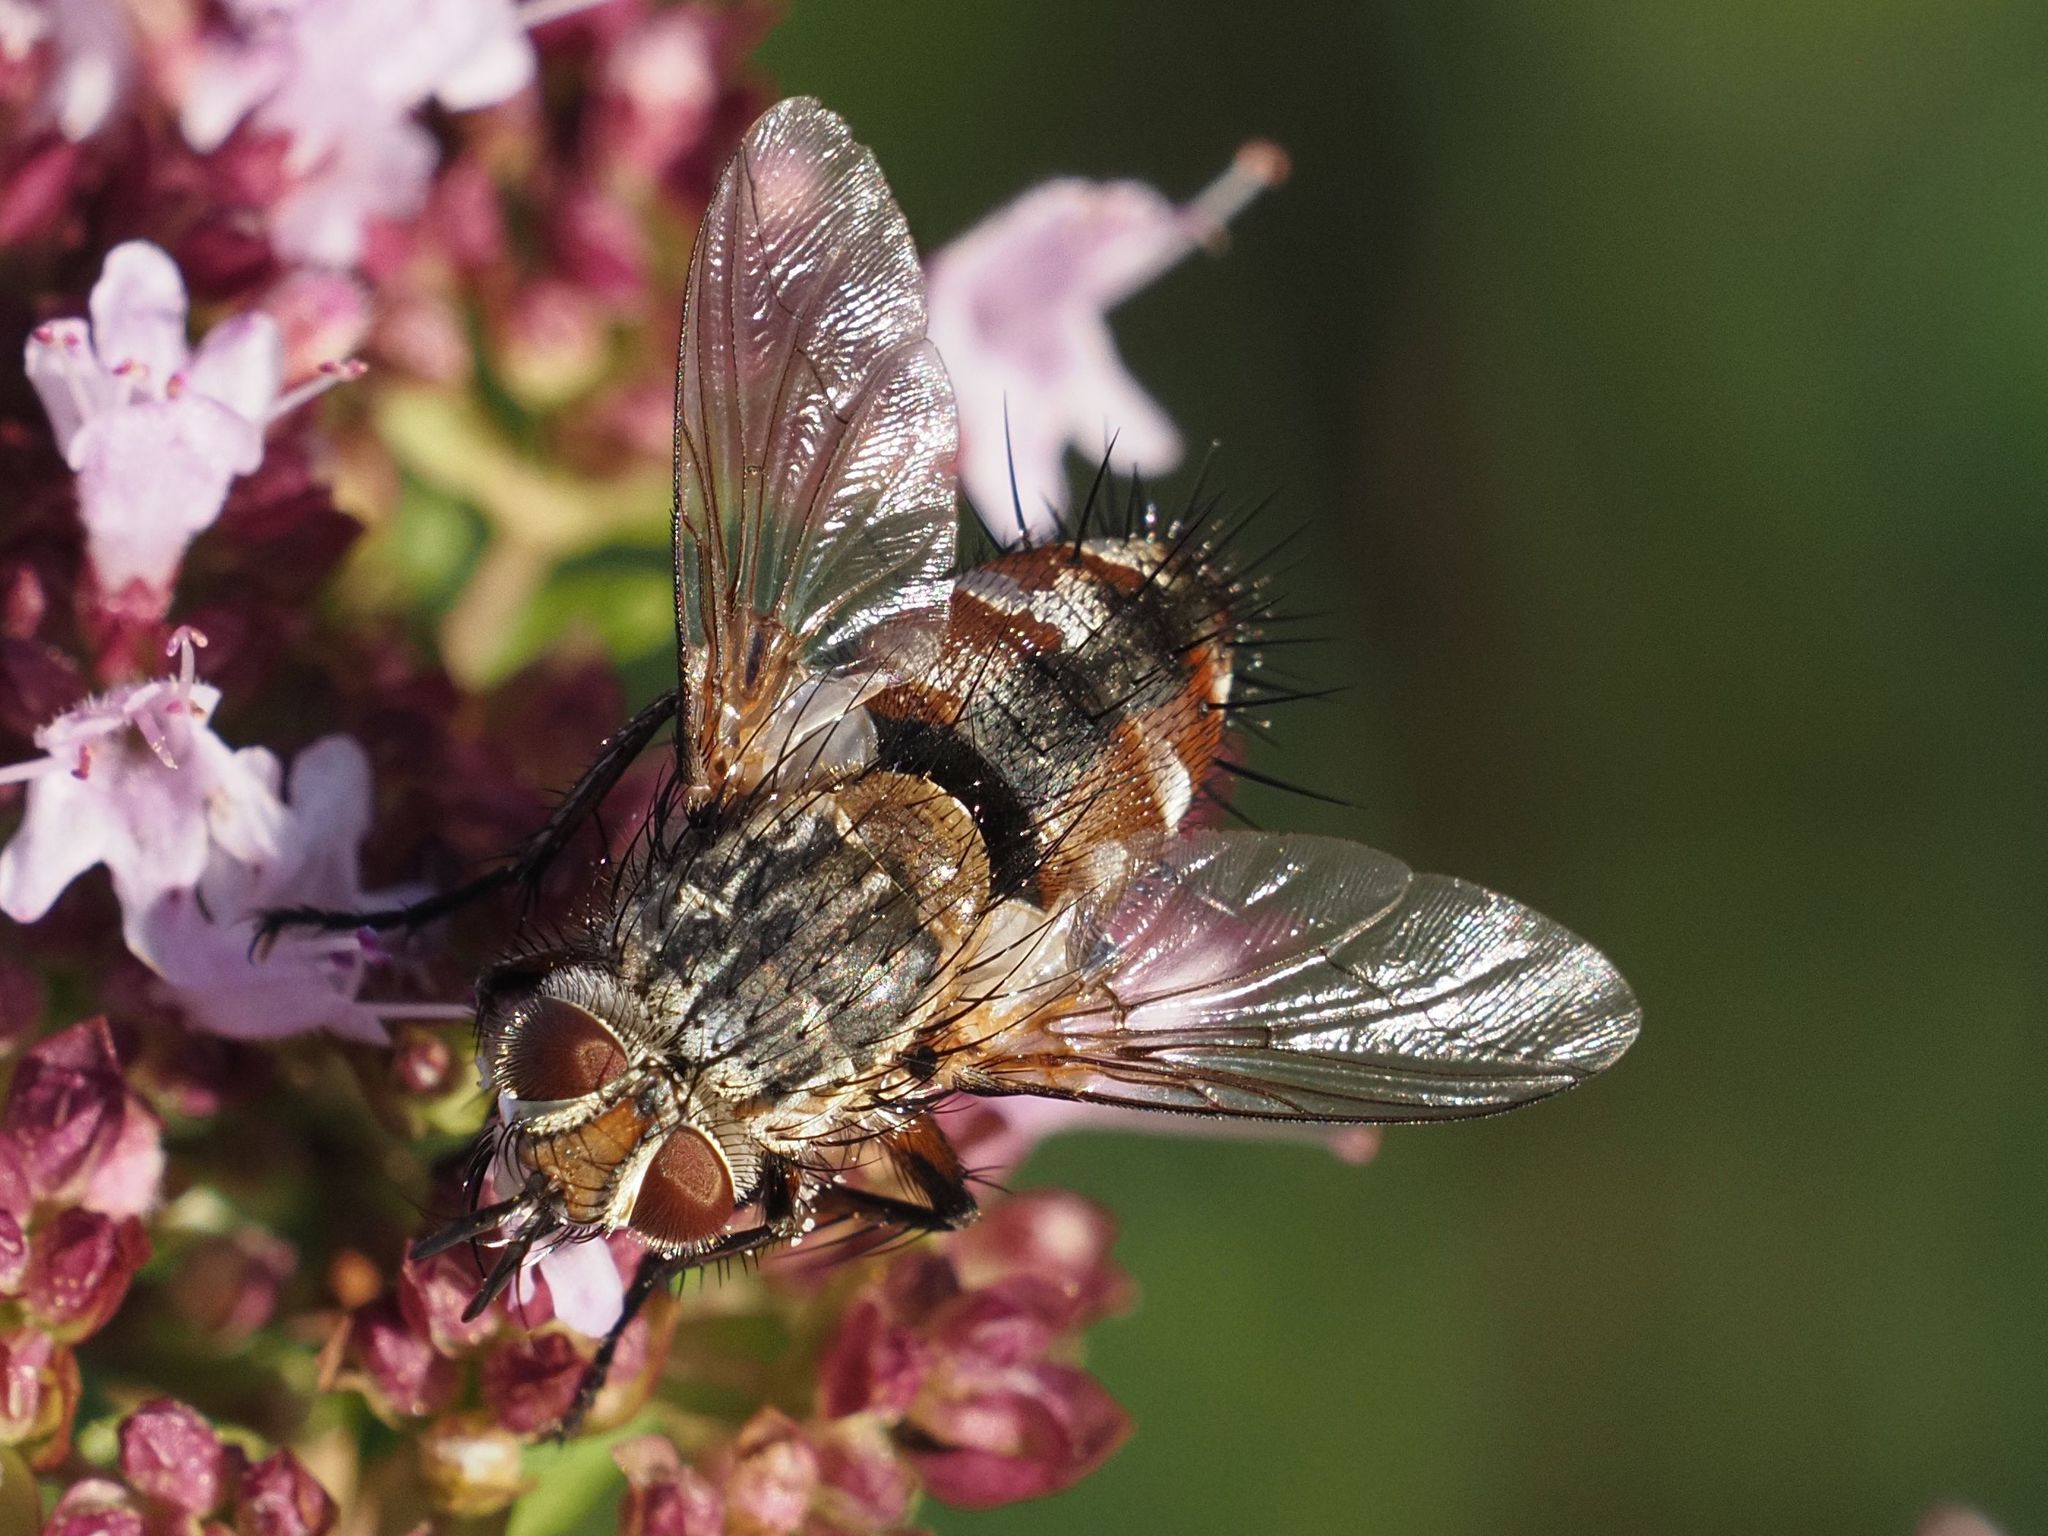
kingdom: Animalia
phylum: Arthropoda
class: Insecta
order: Diptera
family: Tachinidae
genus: Linnaemya
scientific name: Linnaemya vulpina
